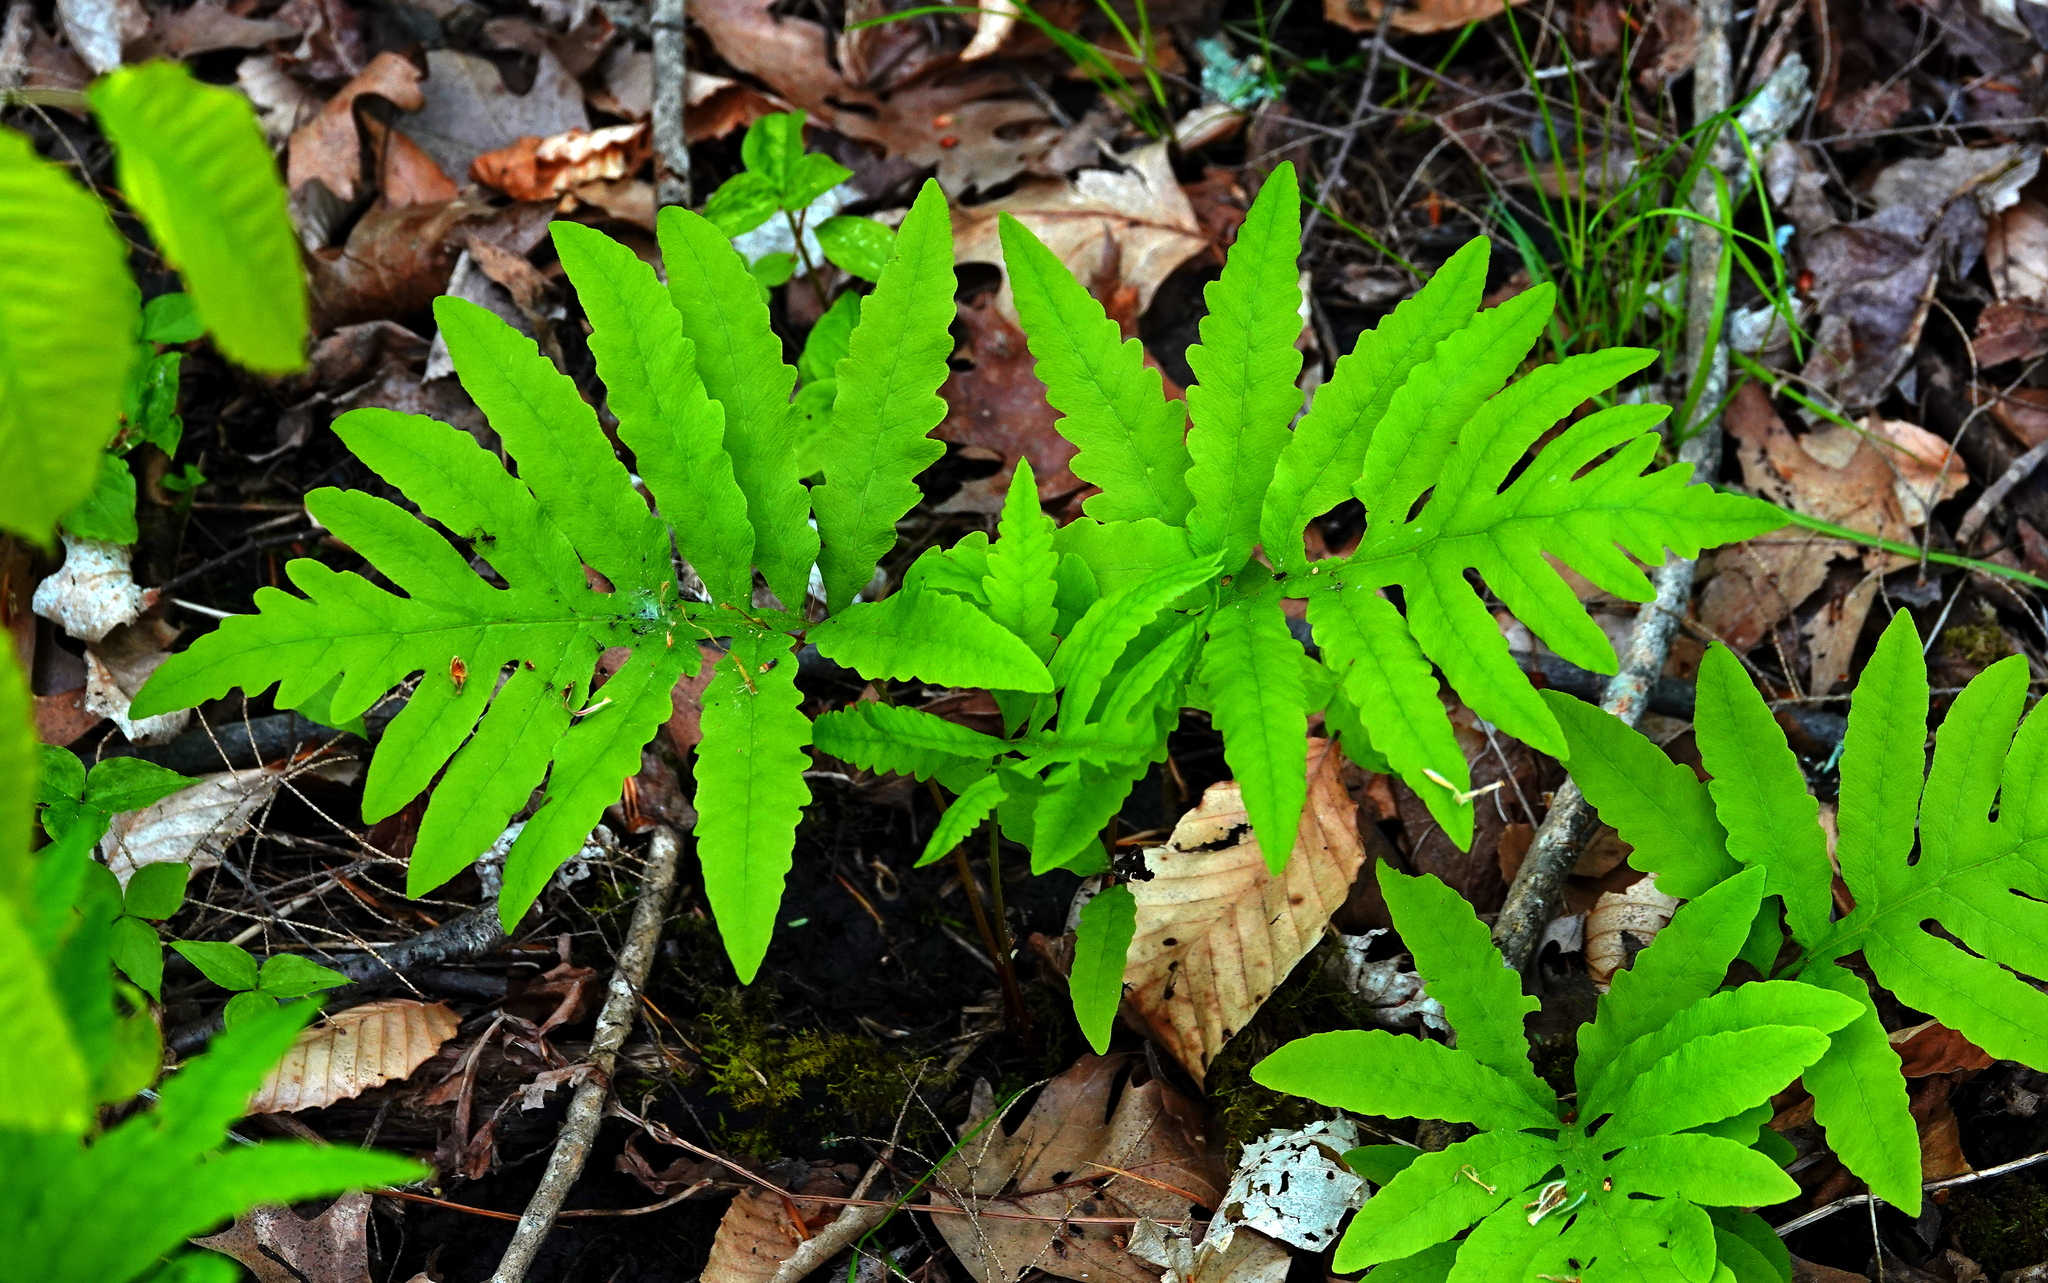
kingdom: Plantae
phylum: Tracheophyta
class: Polypodiopsida
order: Polypodiales
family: Onocleaceae
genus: Onoclea
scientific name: Onoclea sensibilis
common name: Sensitive fern
